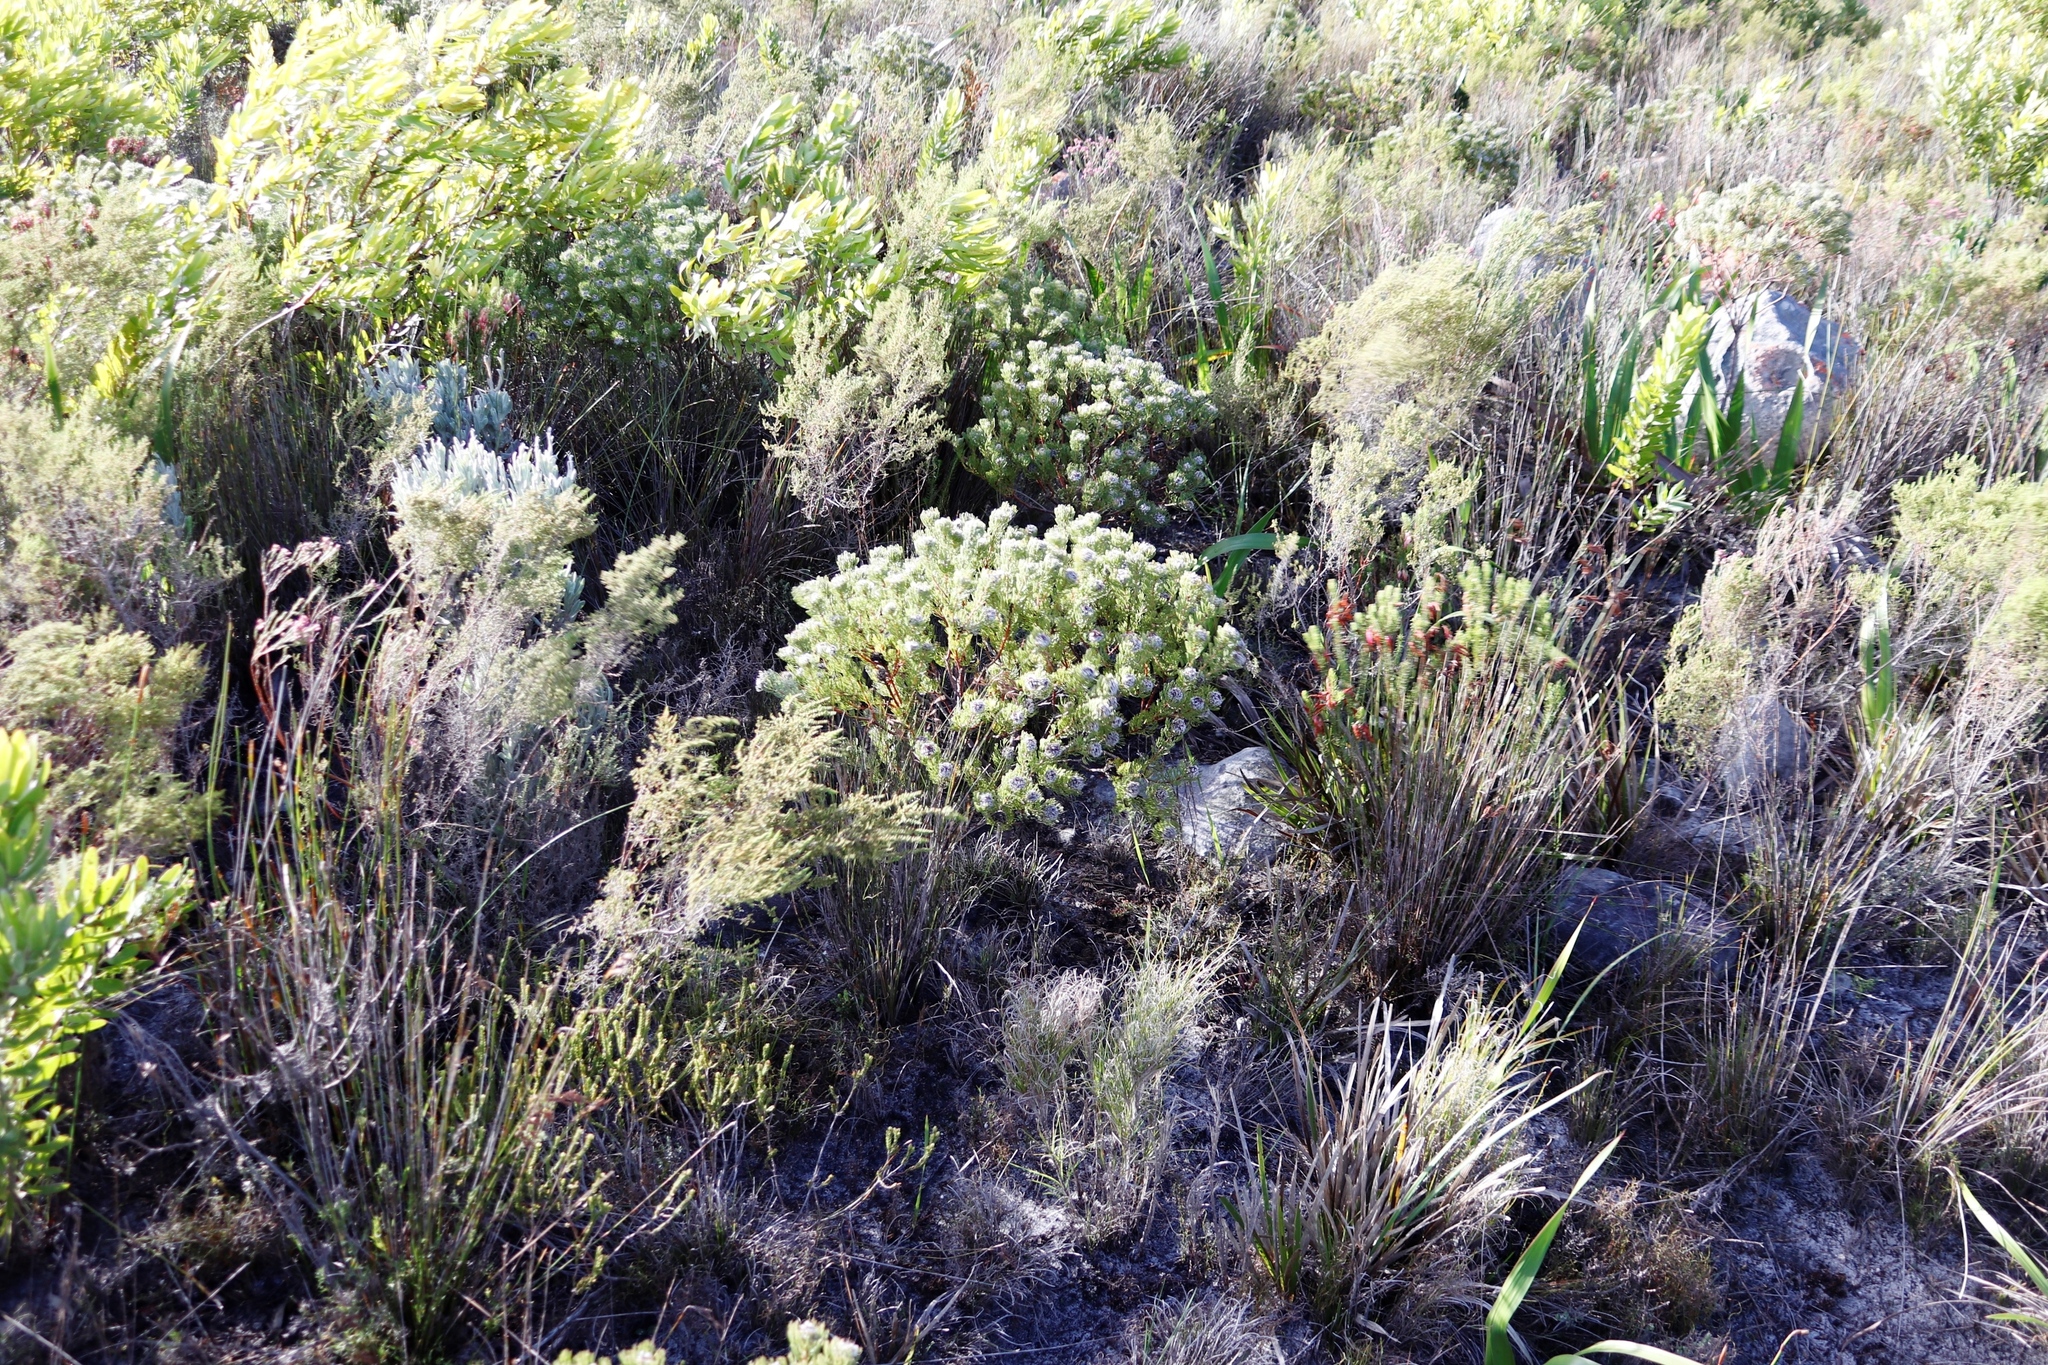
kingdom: Plantae
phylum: Tracheophyta
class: Magnoliopsida
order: Proteales
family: Proteaceae
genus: Serruria
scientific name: Serruria villosa
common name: Golden spiderhead
